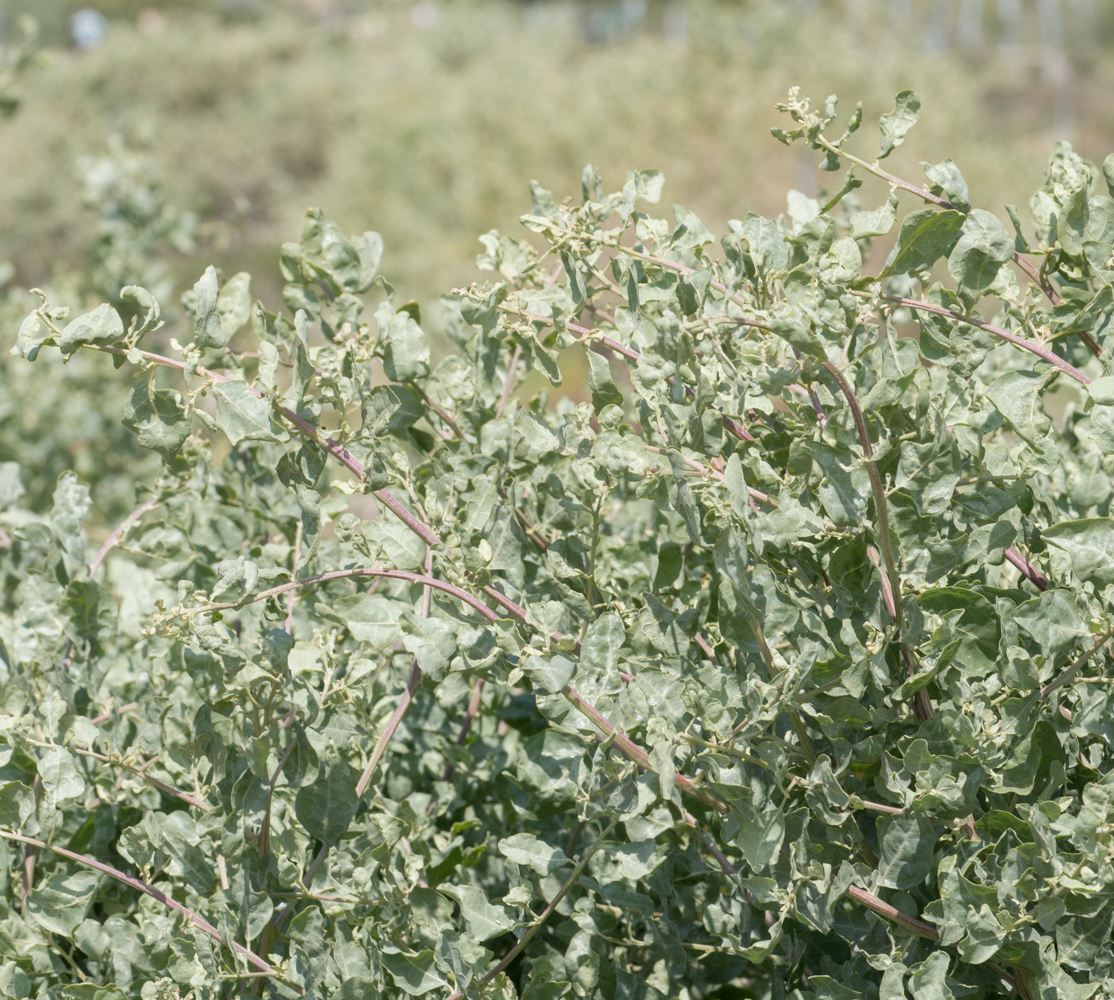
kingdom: Plantae
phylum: Tracheophyta
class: Magnoliopsida
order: Caryophyllales
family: Amaranthaceae
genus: Atriplex
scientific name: Atriplex lentiformis
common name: Big saltbush
